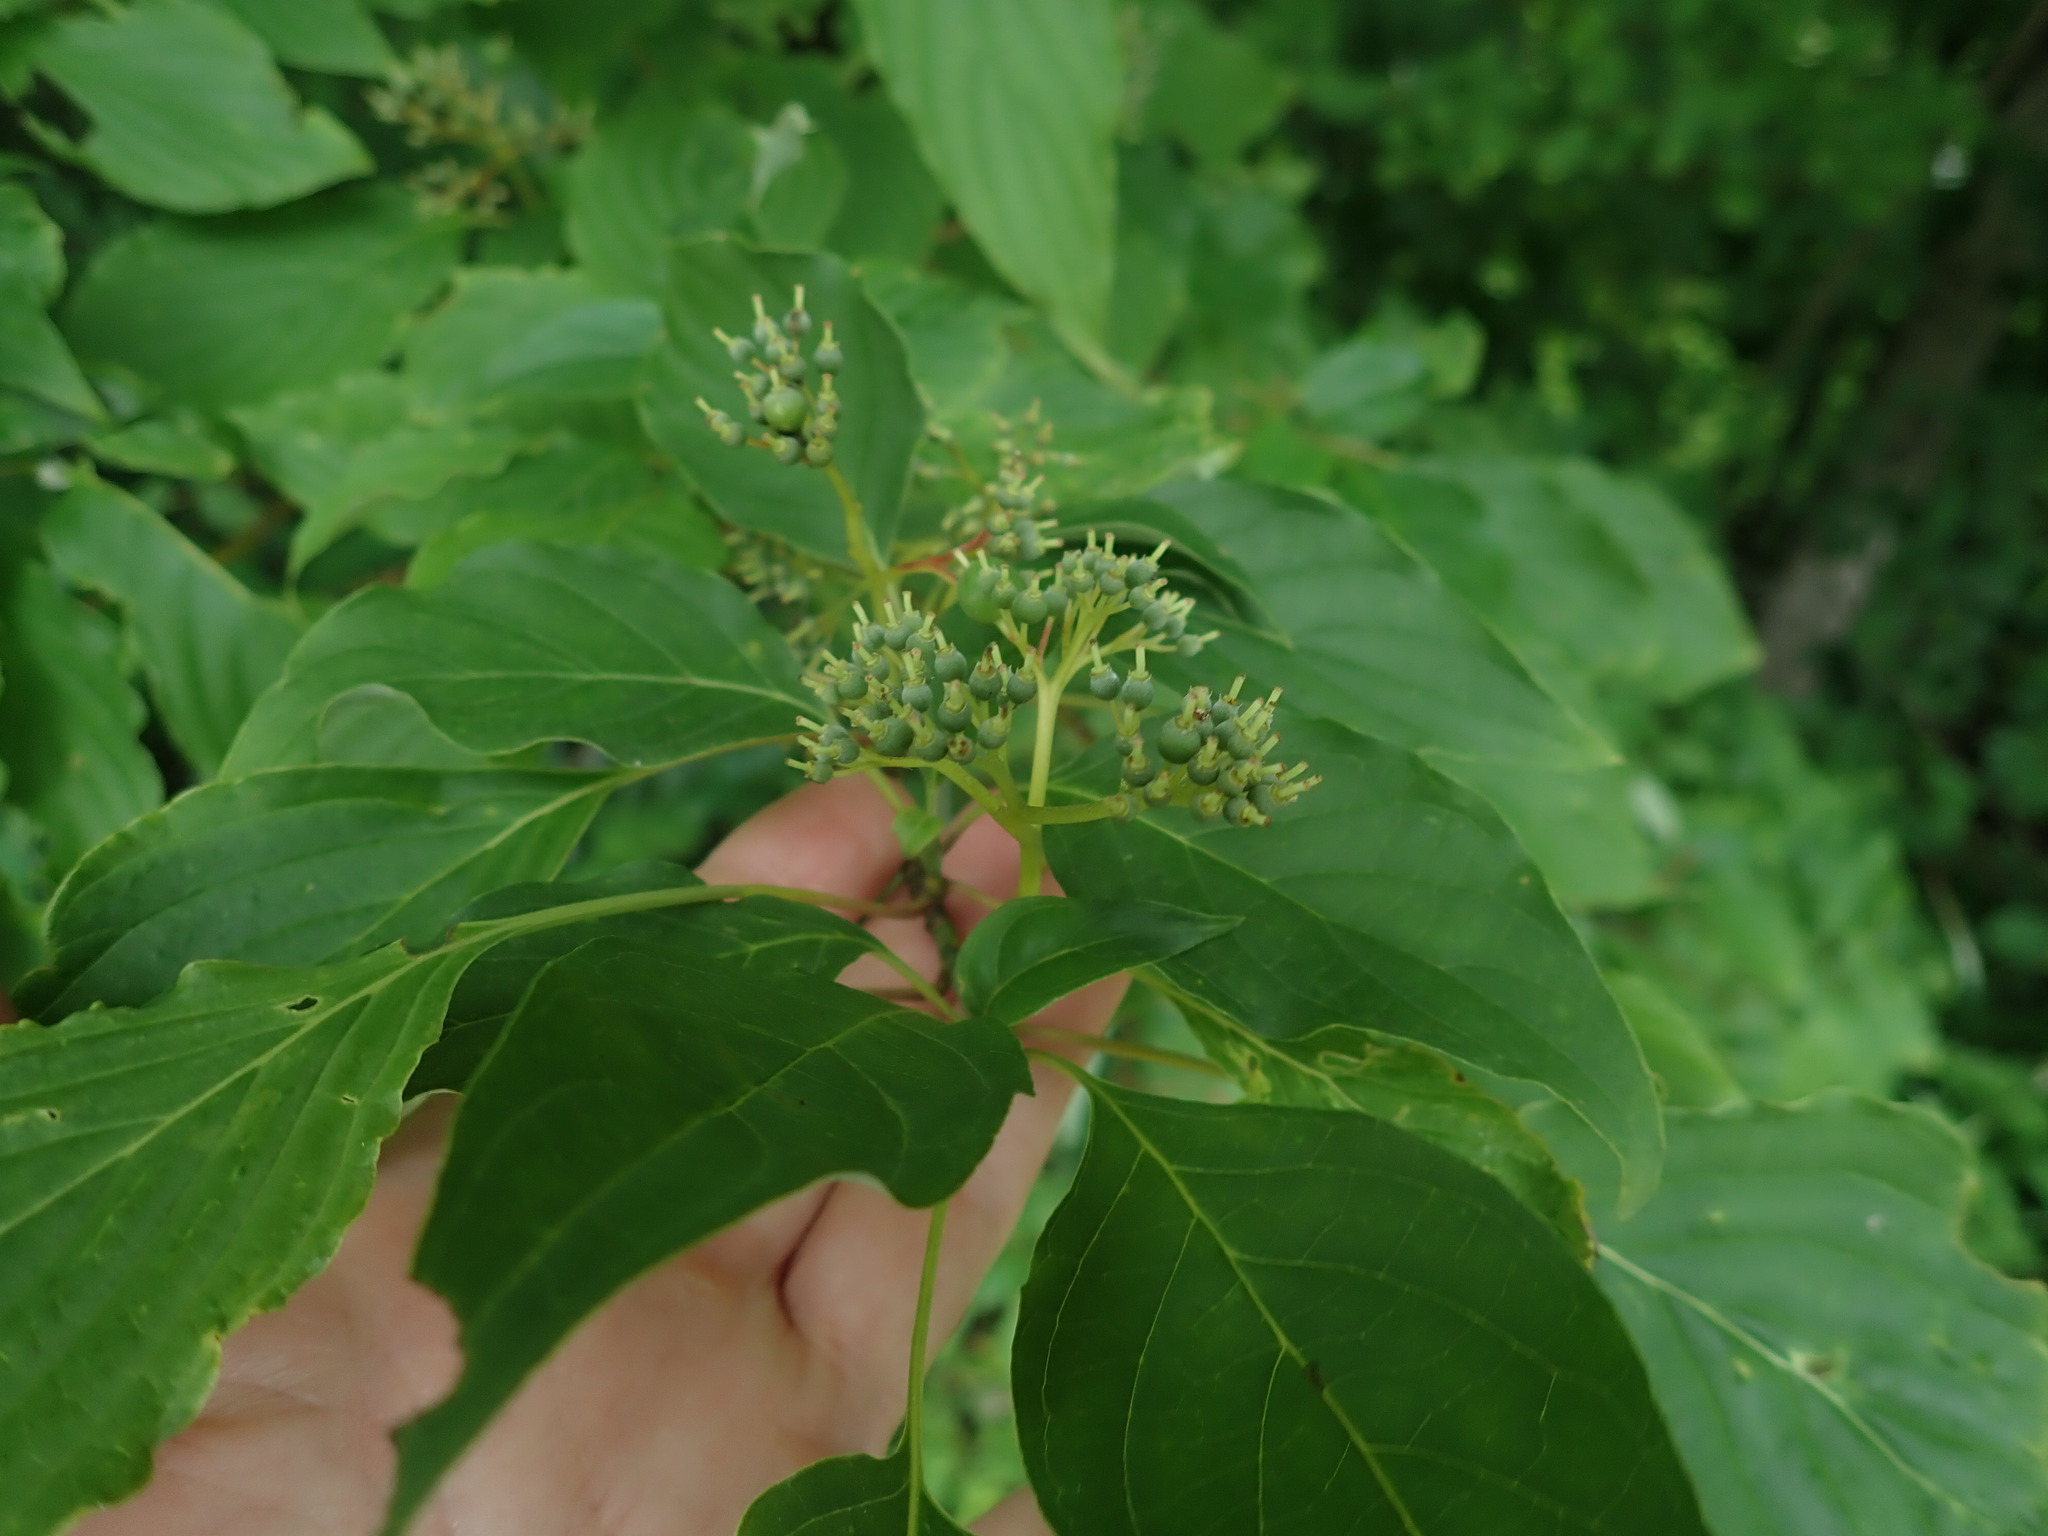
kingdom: Plantae
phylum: Tracheophyta
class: Magnoliopsida
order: Cornales
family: Cornaceae
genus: Cornus
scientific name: Cornus alternifolia
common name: Pagoda dogwood
